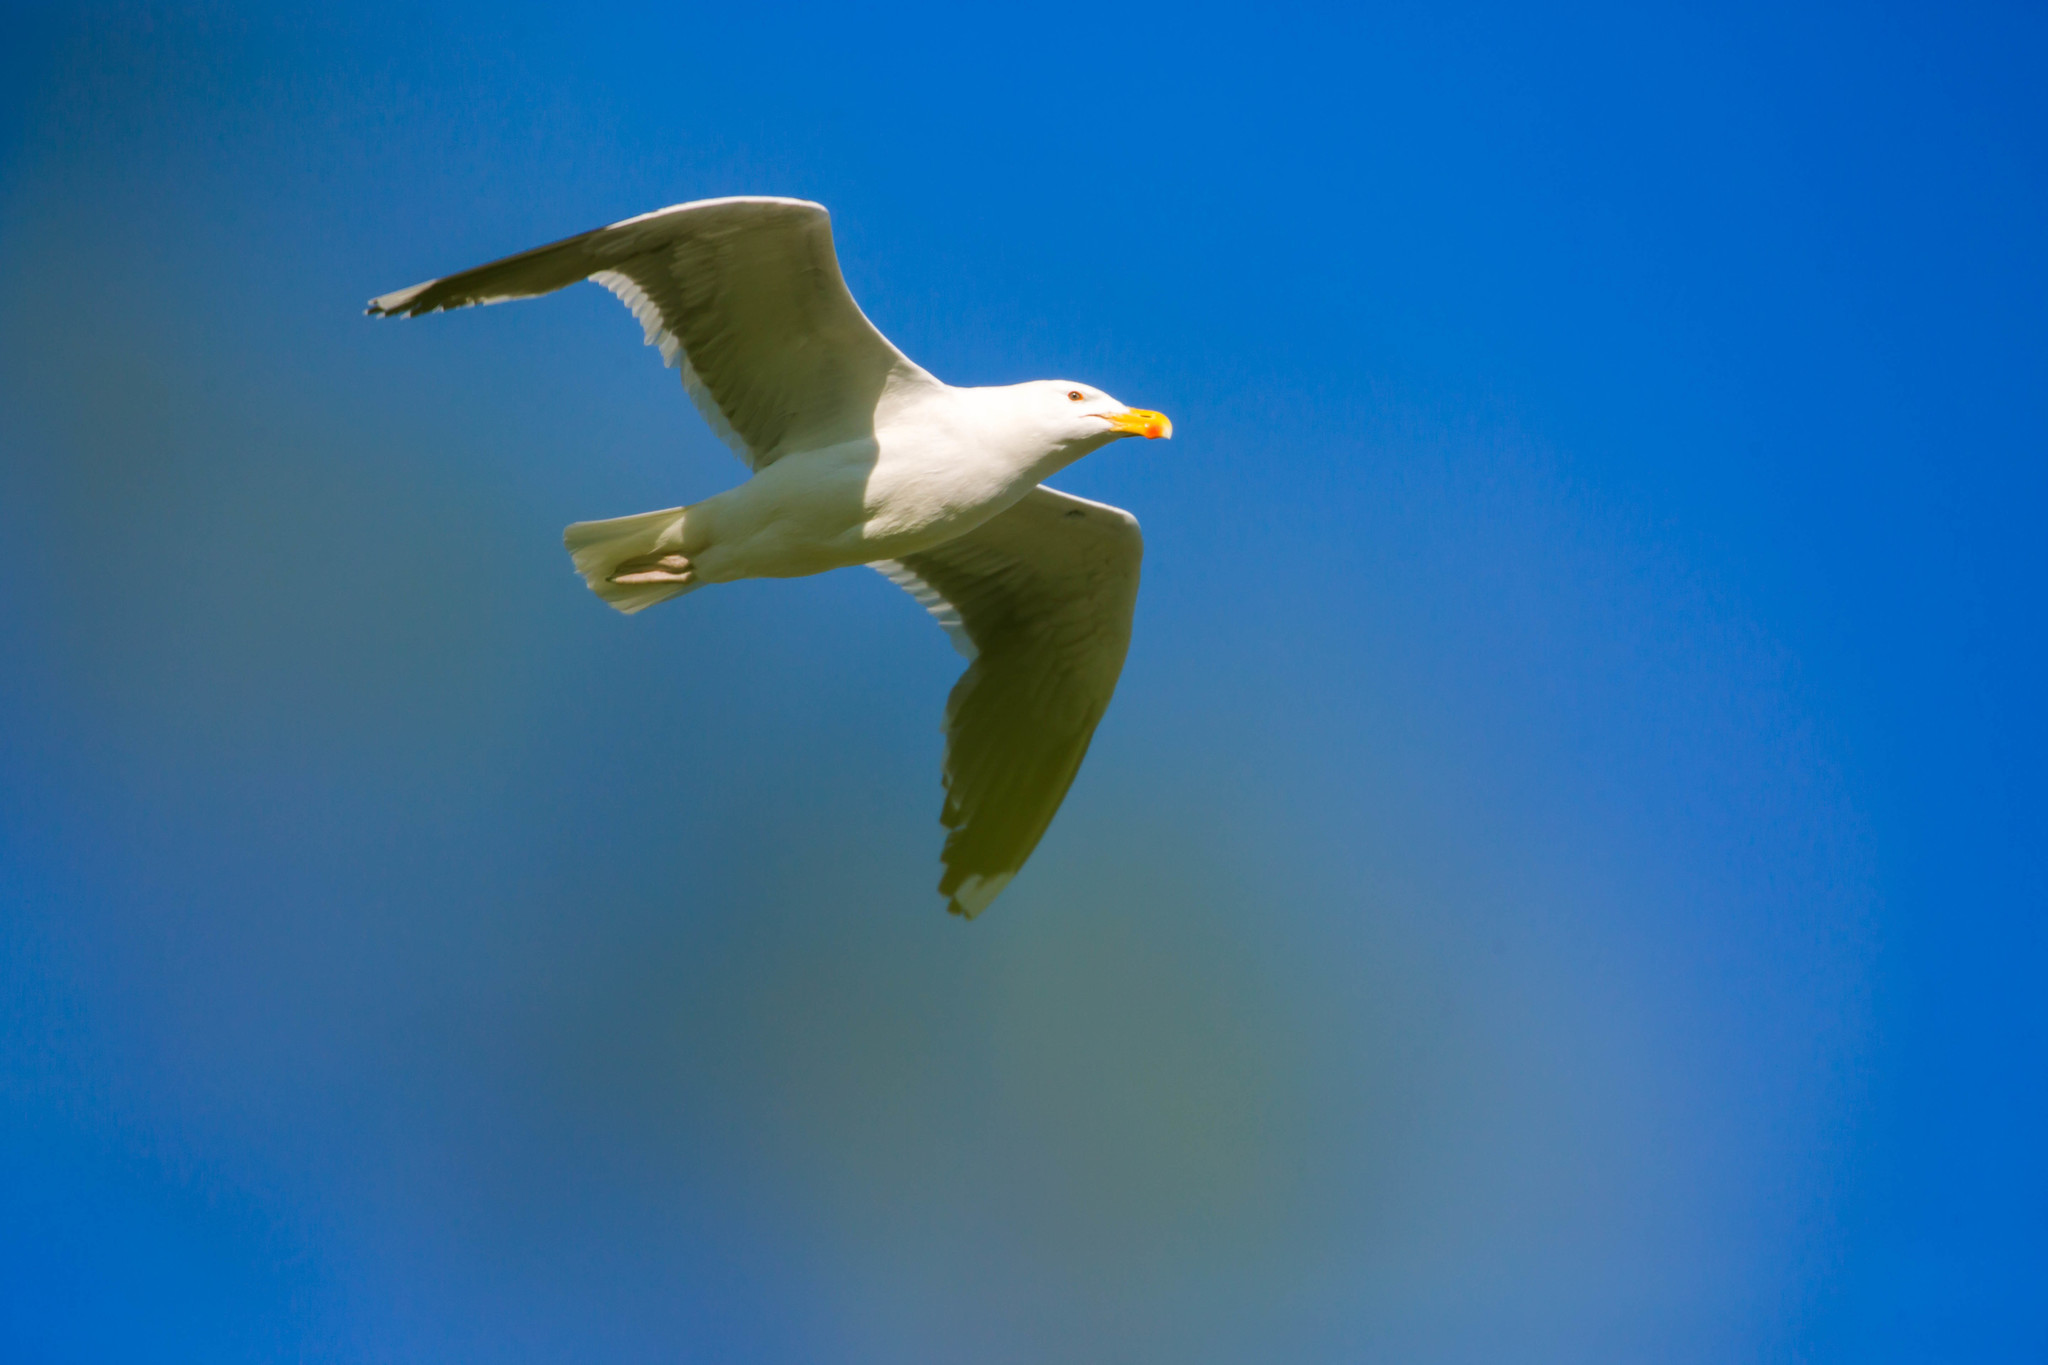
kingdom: Animalia
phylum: Chordata
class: Aves
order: Charadriiformes
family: Laridae
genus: Larus
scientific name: Larus argentatus
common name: Herring gull
